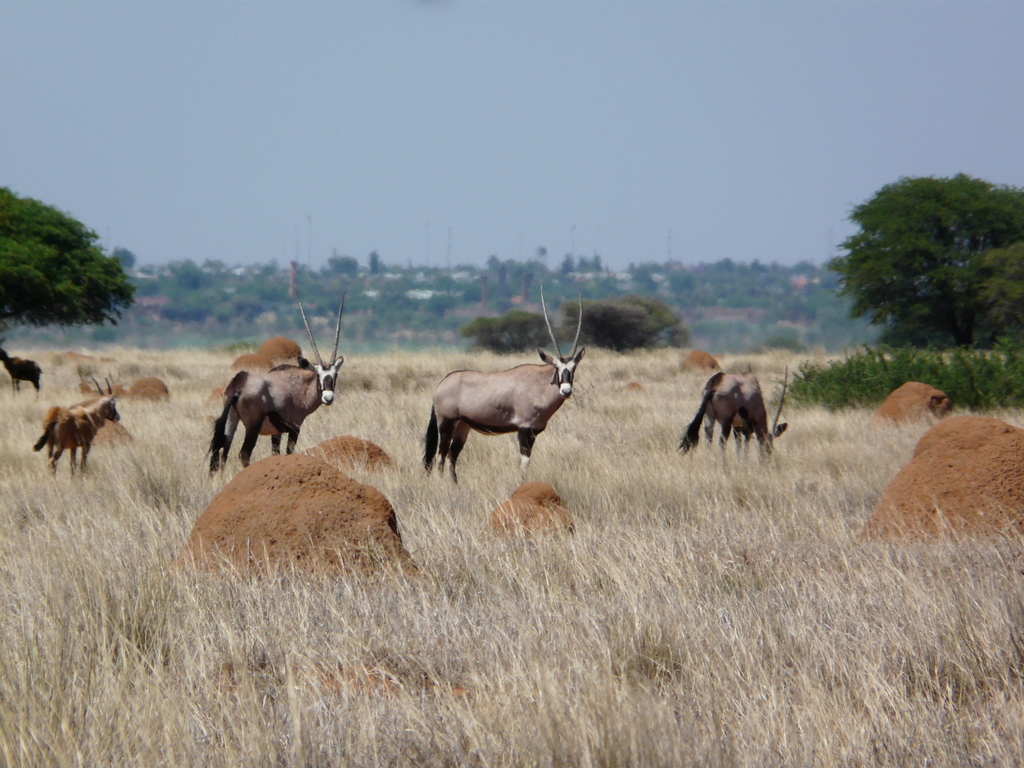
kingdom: Animalia
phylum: Chordata
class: Mammalia
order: Artiodactyla
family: Bovidae
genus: Oryx
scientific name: Oryx gazella
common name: Gemsbok
